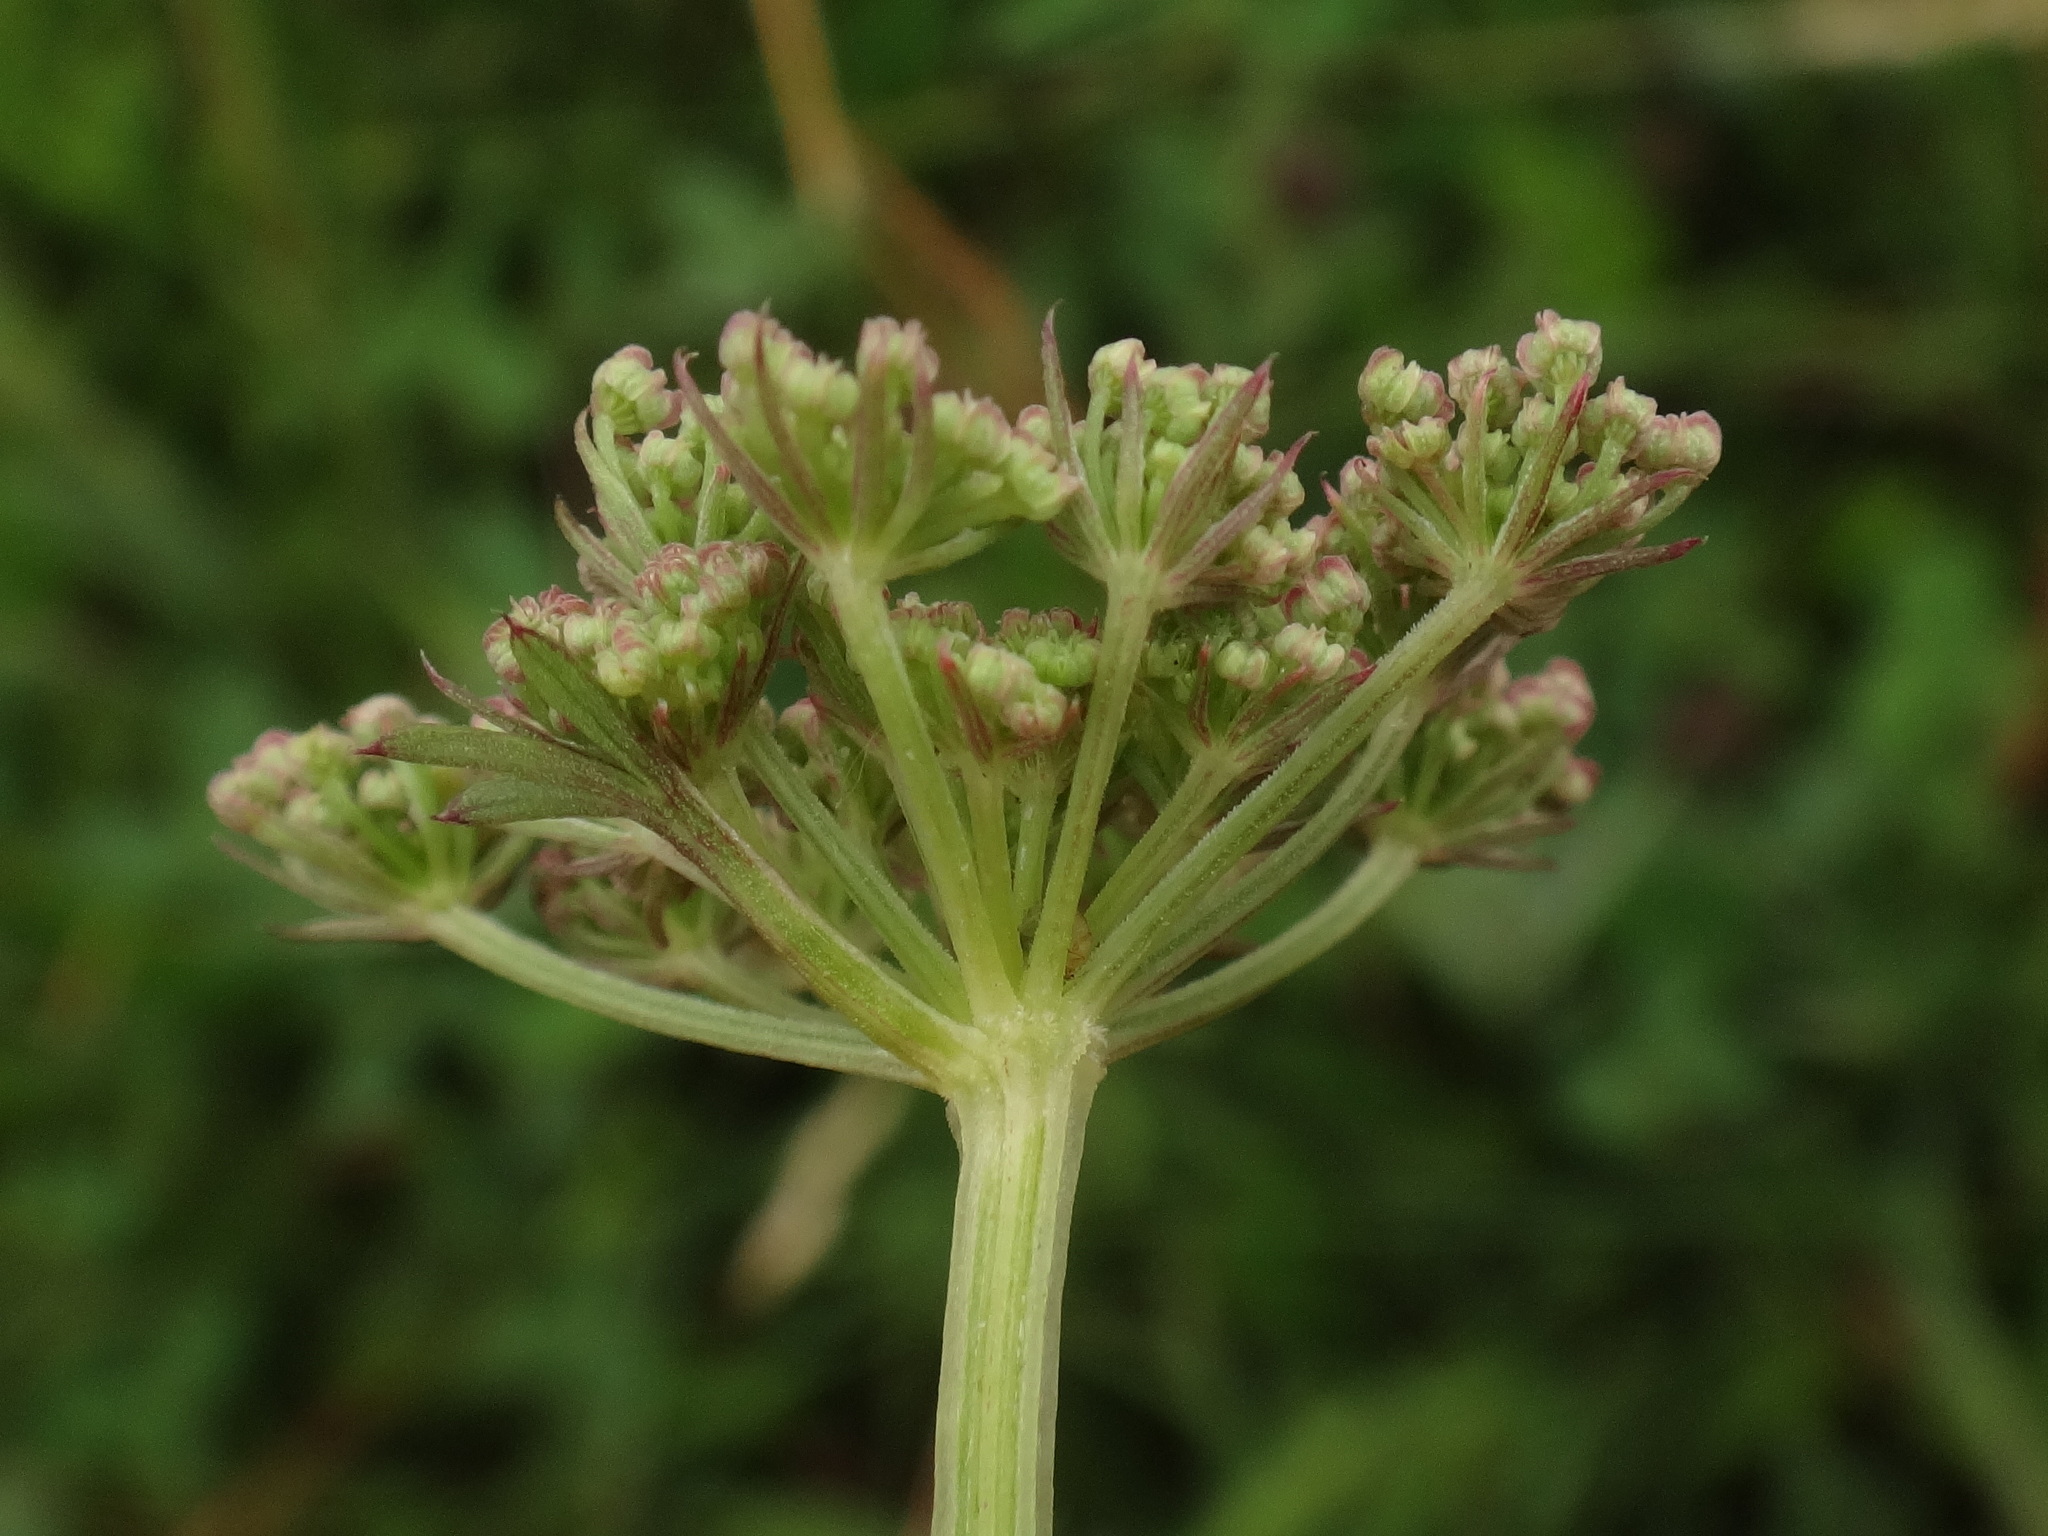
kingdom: Plantae
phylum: Tracheophyta
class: Magnoliopsida
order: Apiales
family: Apiaceae
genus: Selinum
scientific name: Selinum carvifolia
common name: Cambridge milk-parsley
